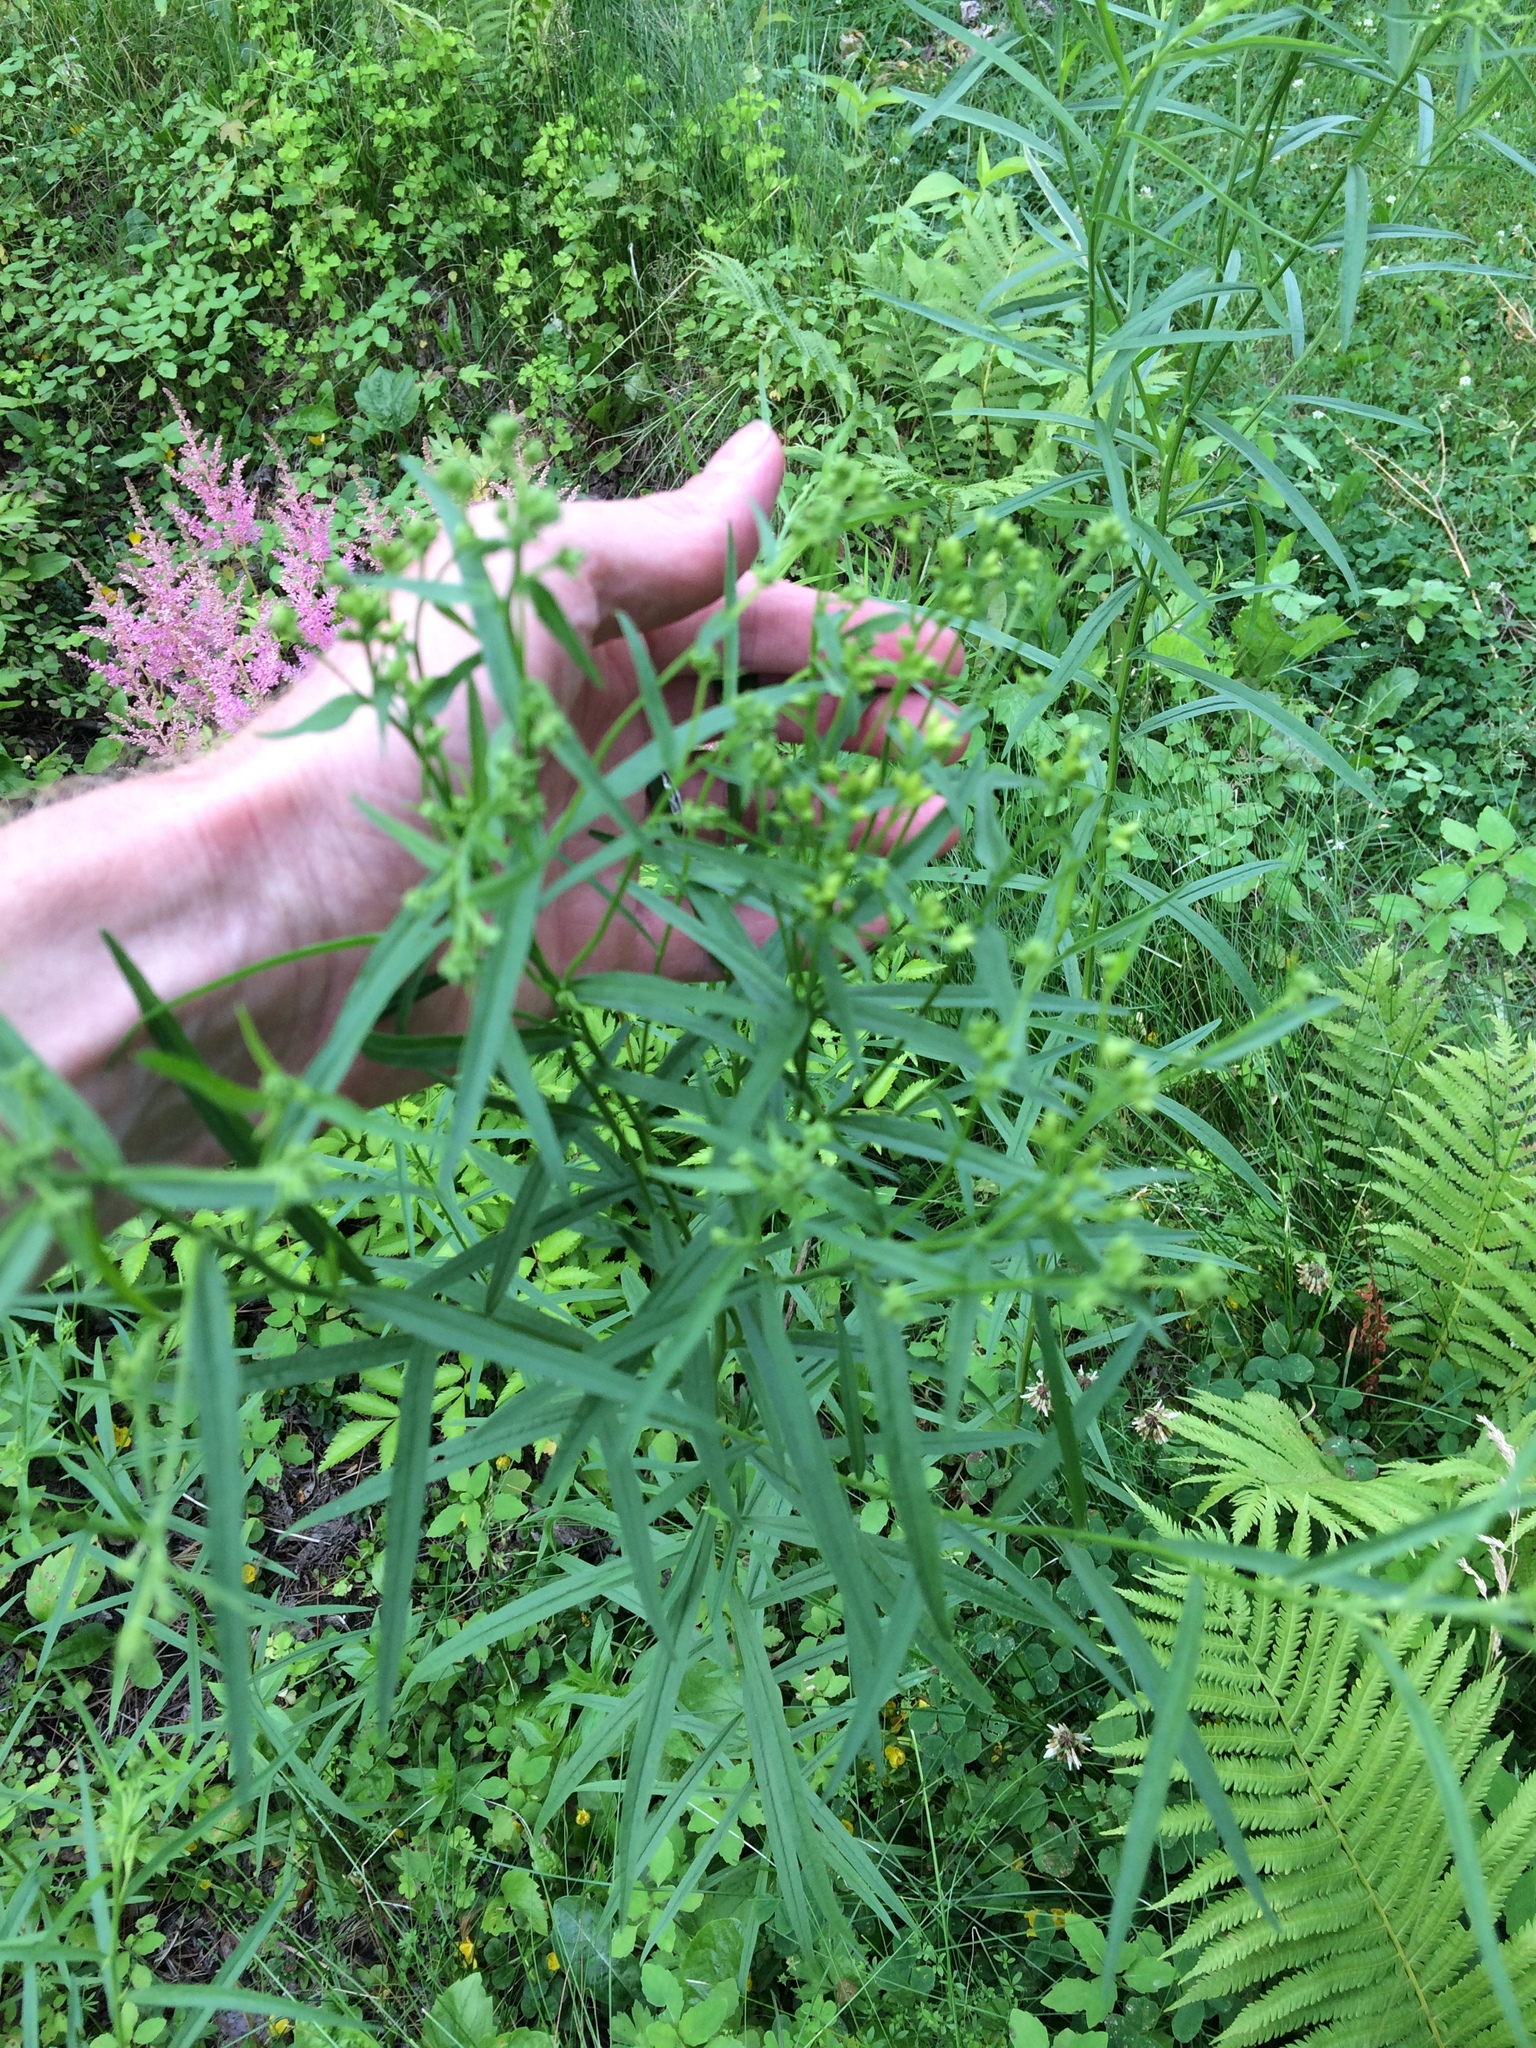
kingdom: Plantae
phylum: Tracheophyta
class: Magnoliopsida
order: Asterales
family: Asteraceae
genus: Euthamia
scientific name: Euthamia graminifolia
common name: Common goldentop
